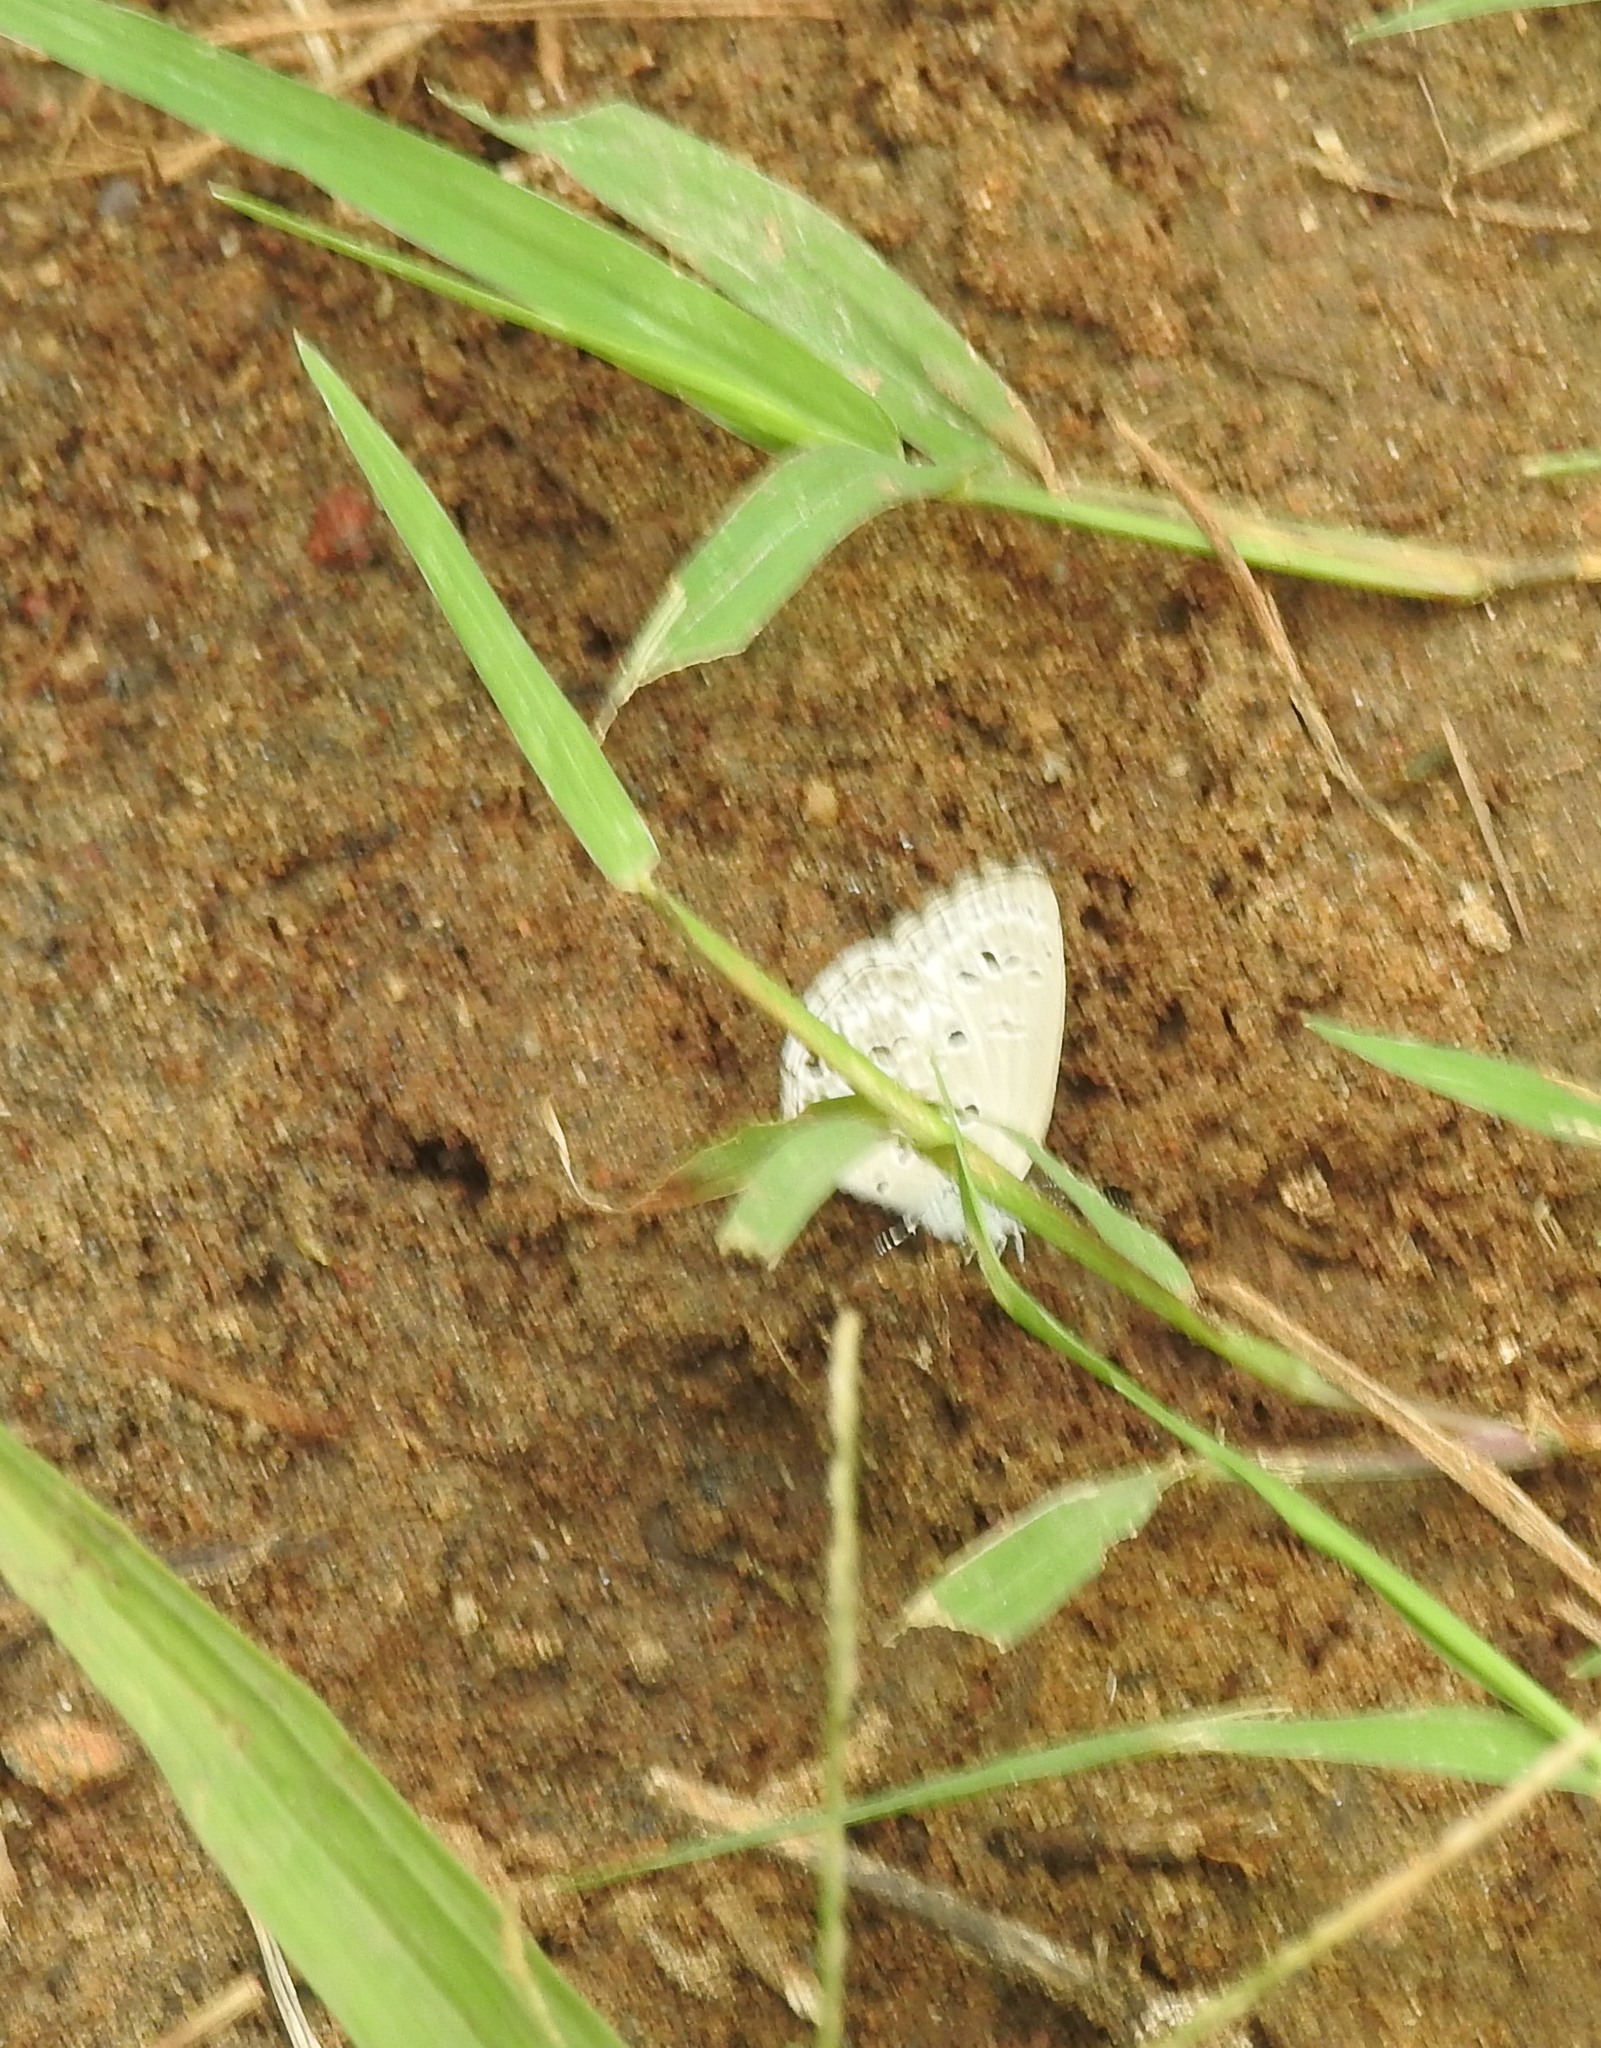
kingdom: Animalia
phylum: Arthropoda
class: Insecta
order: Lepidoptera
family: Lycaenidae
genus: Chilades
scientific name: Chilades laius
